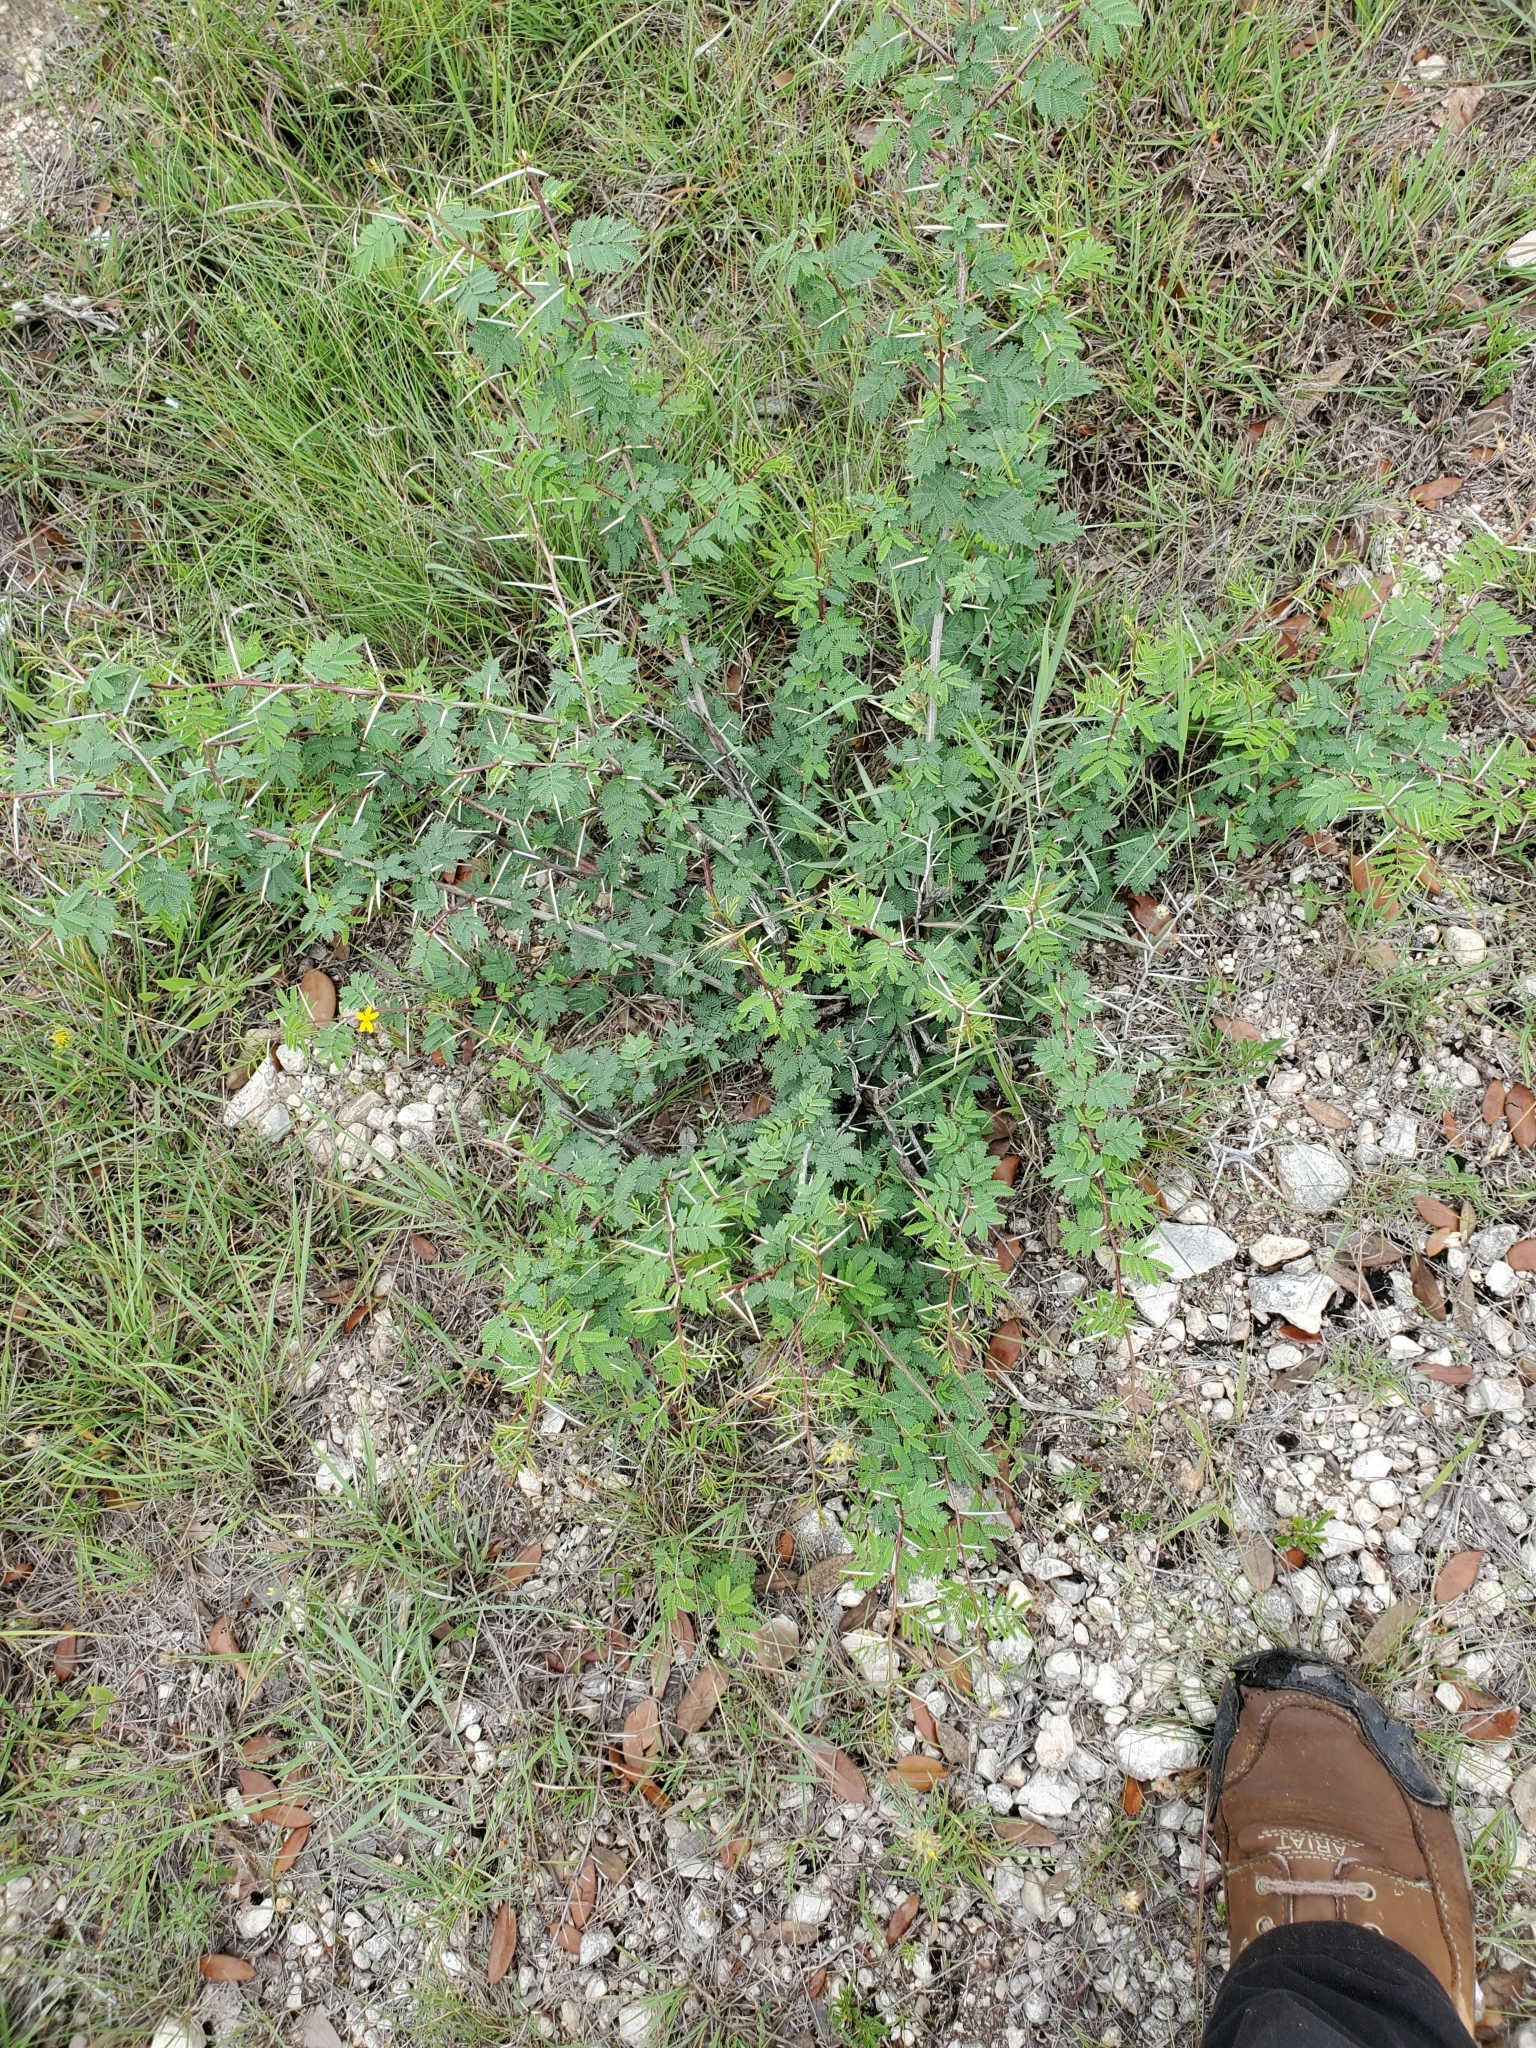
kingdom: Plantae
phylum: Tracheophyta
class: Magnoliopsida
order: Fabales
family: Fabaceae
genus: Vachellia
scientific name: Vachellia farnesiana
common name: Sweet acacia
